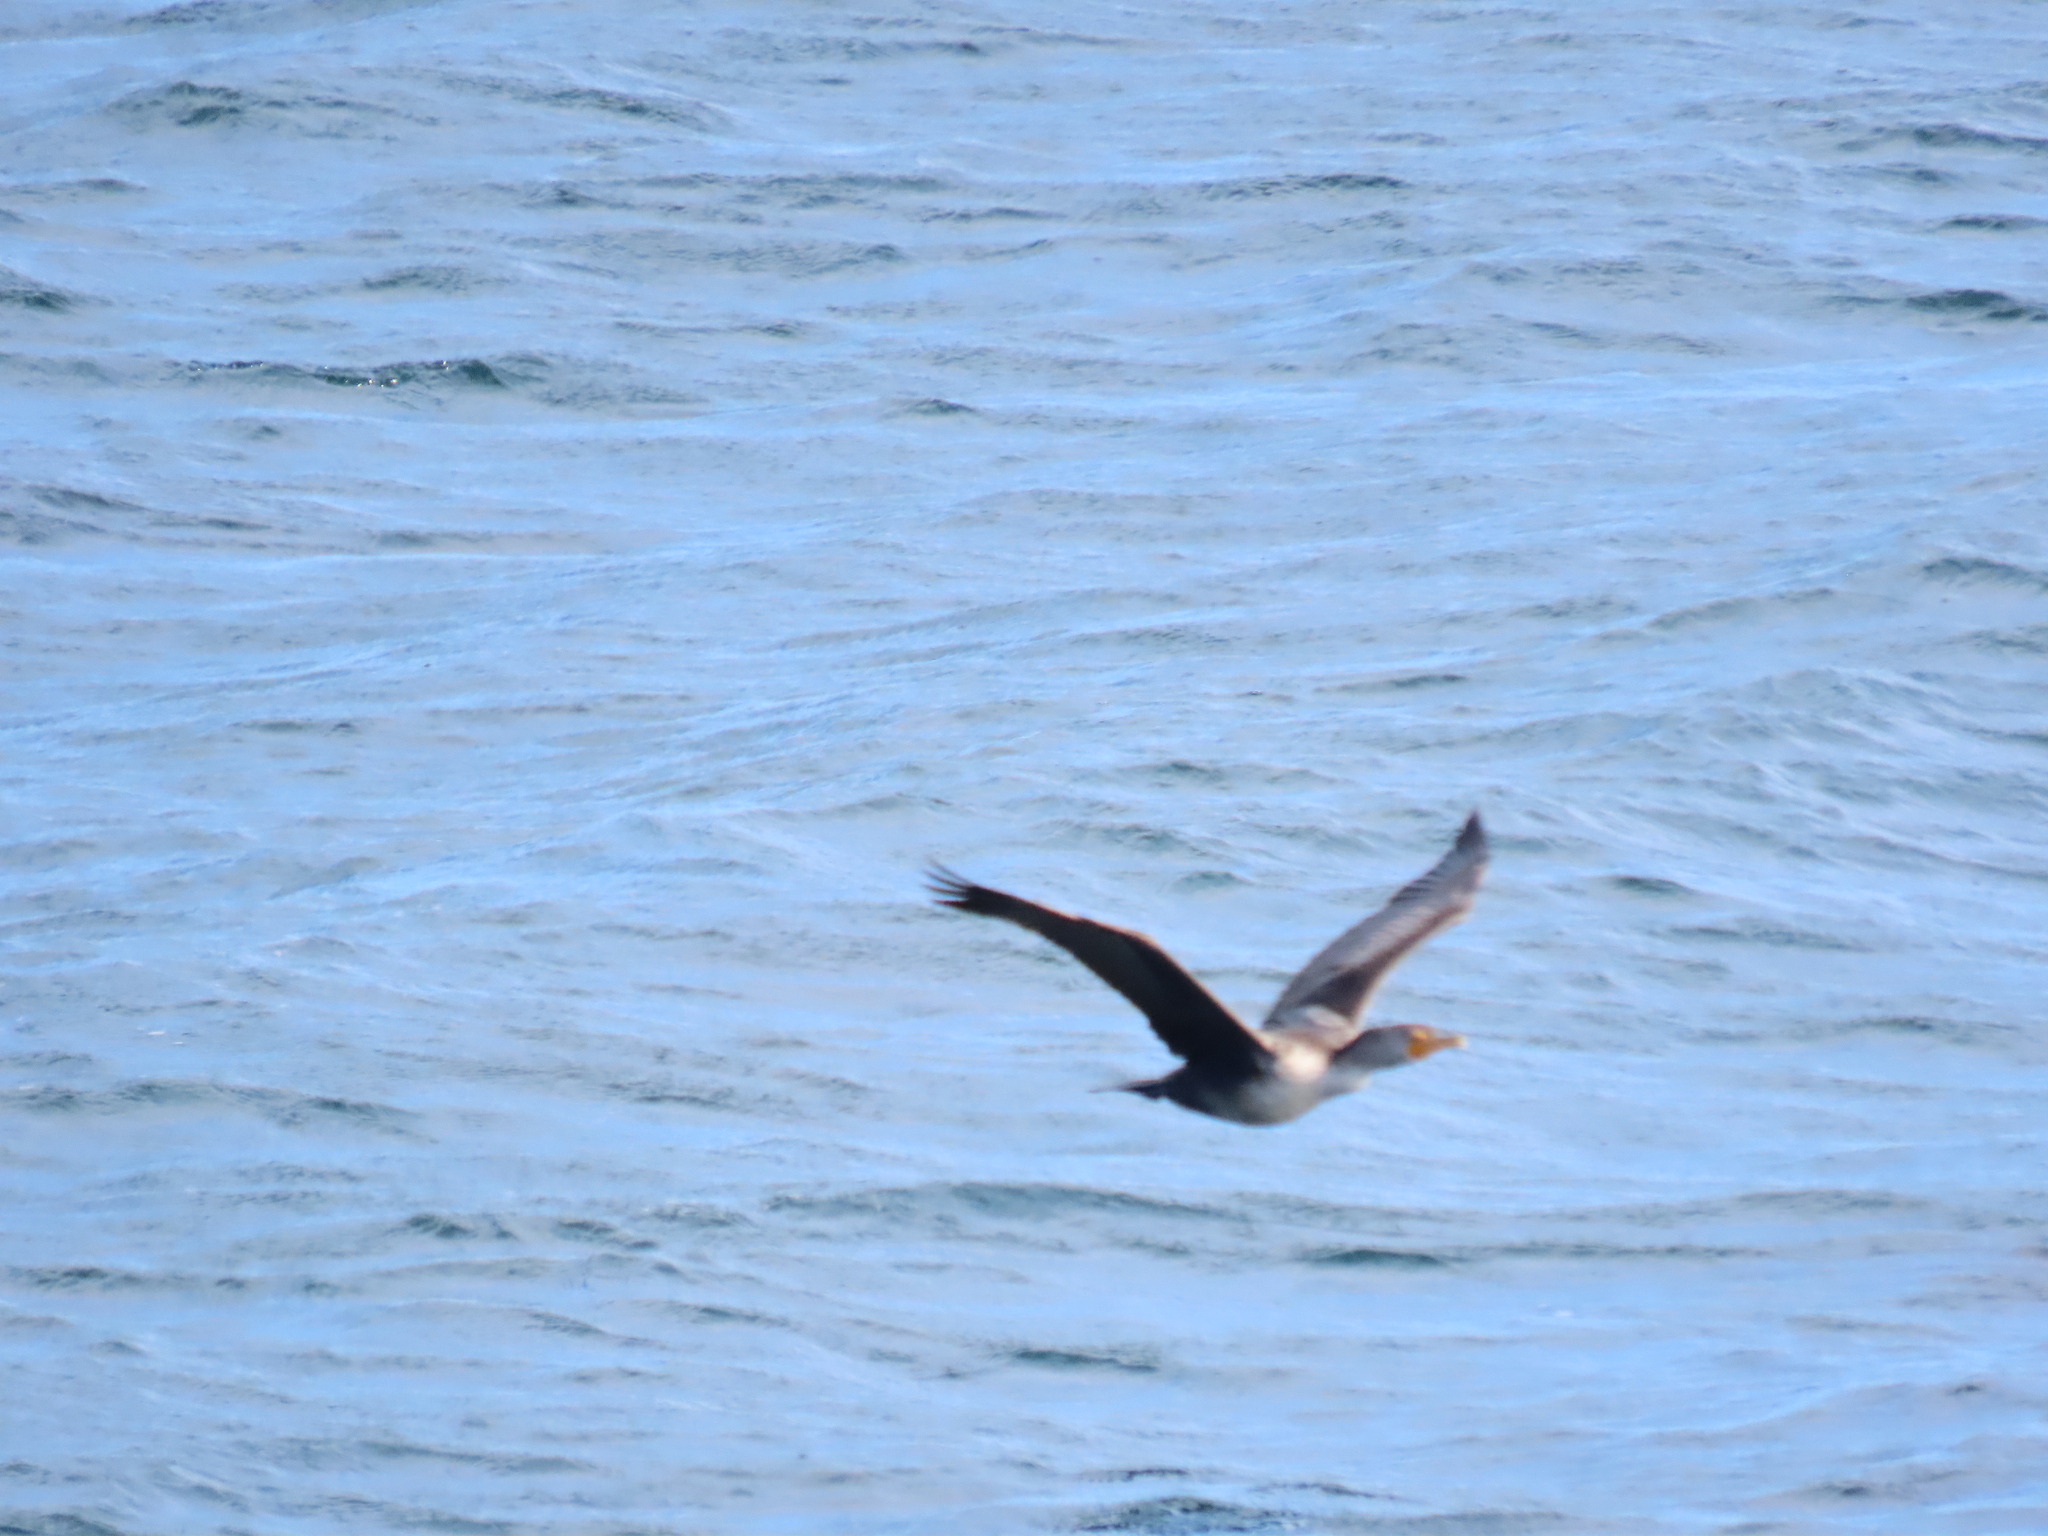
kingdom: Animalia
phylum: Chordata
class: Aves
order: Suliformes
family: Phalacrocoracidae
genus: Phalacrocorax
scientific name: Phalacrocorax auritus
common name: Double-crested cormorant
